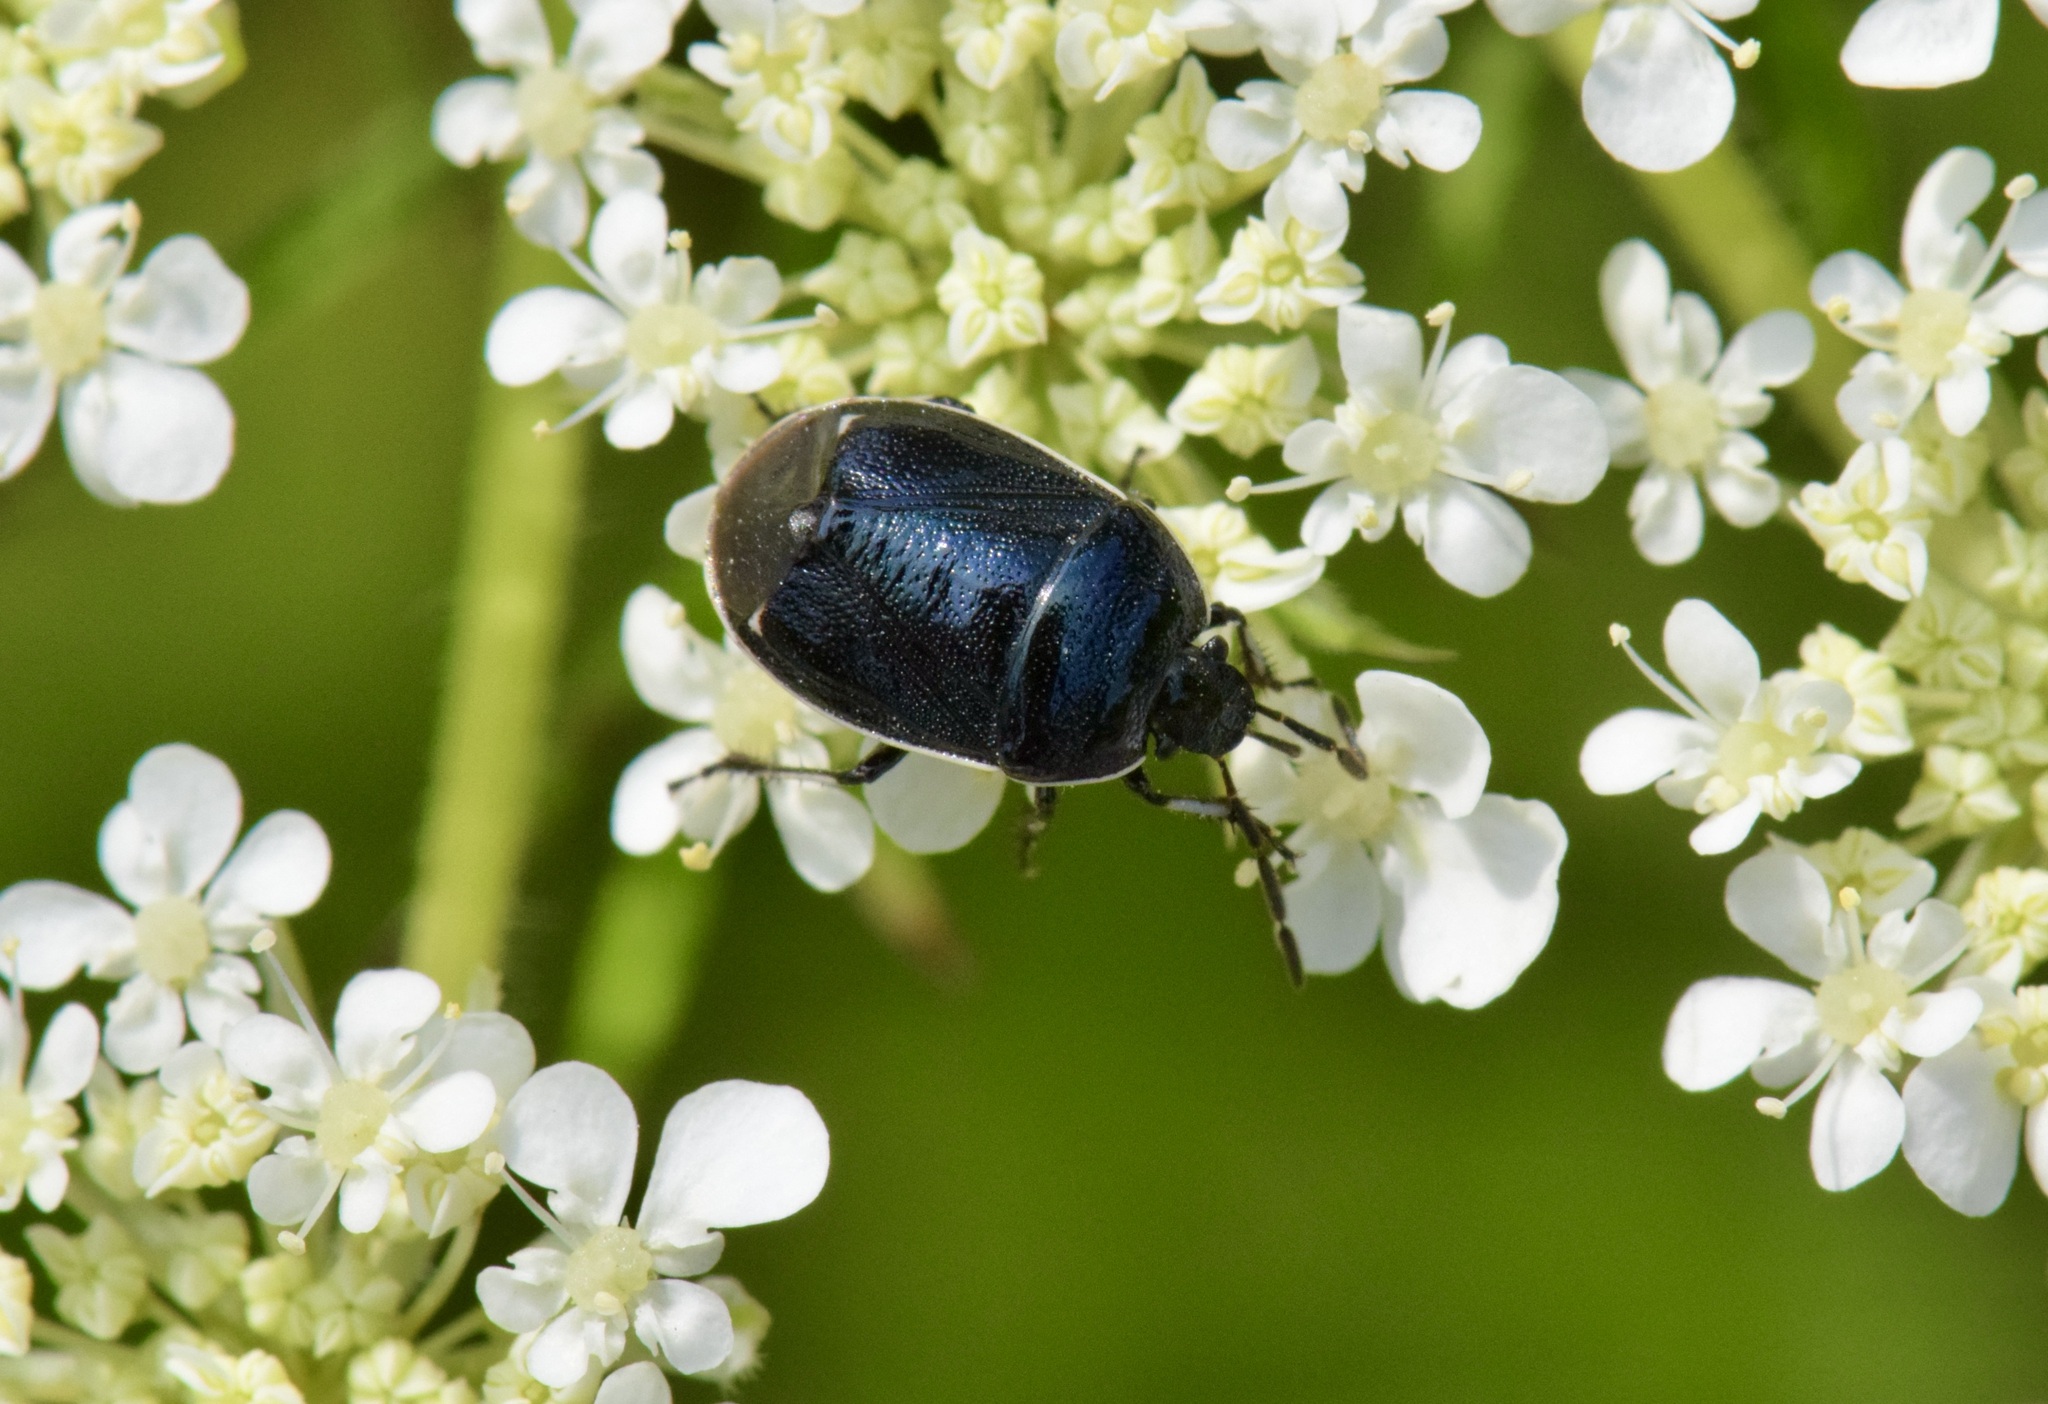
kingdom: Animalia
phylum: Arthropoda
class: Insecta
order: Hemiptera
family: Cydnidae
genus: Sehirus
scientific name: Sehirus cinctus
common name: White-margined burrower bug
